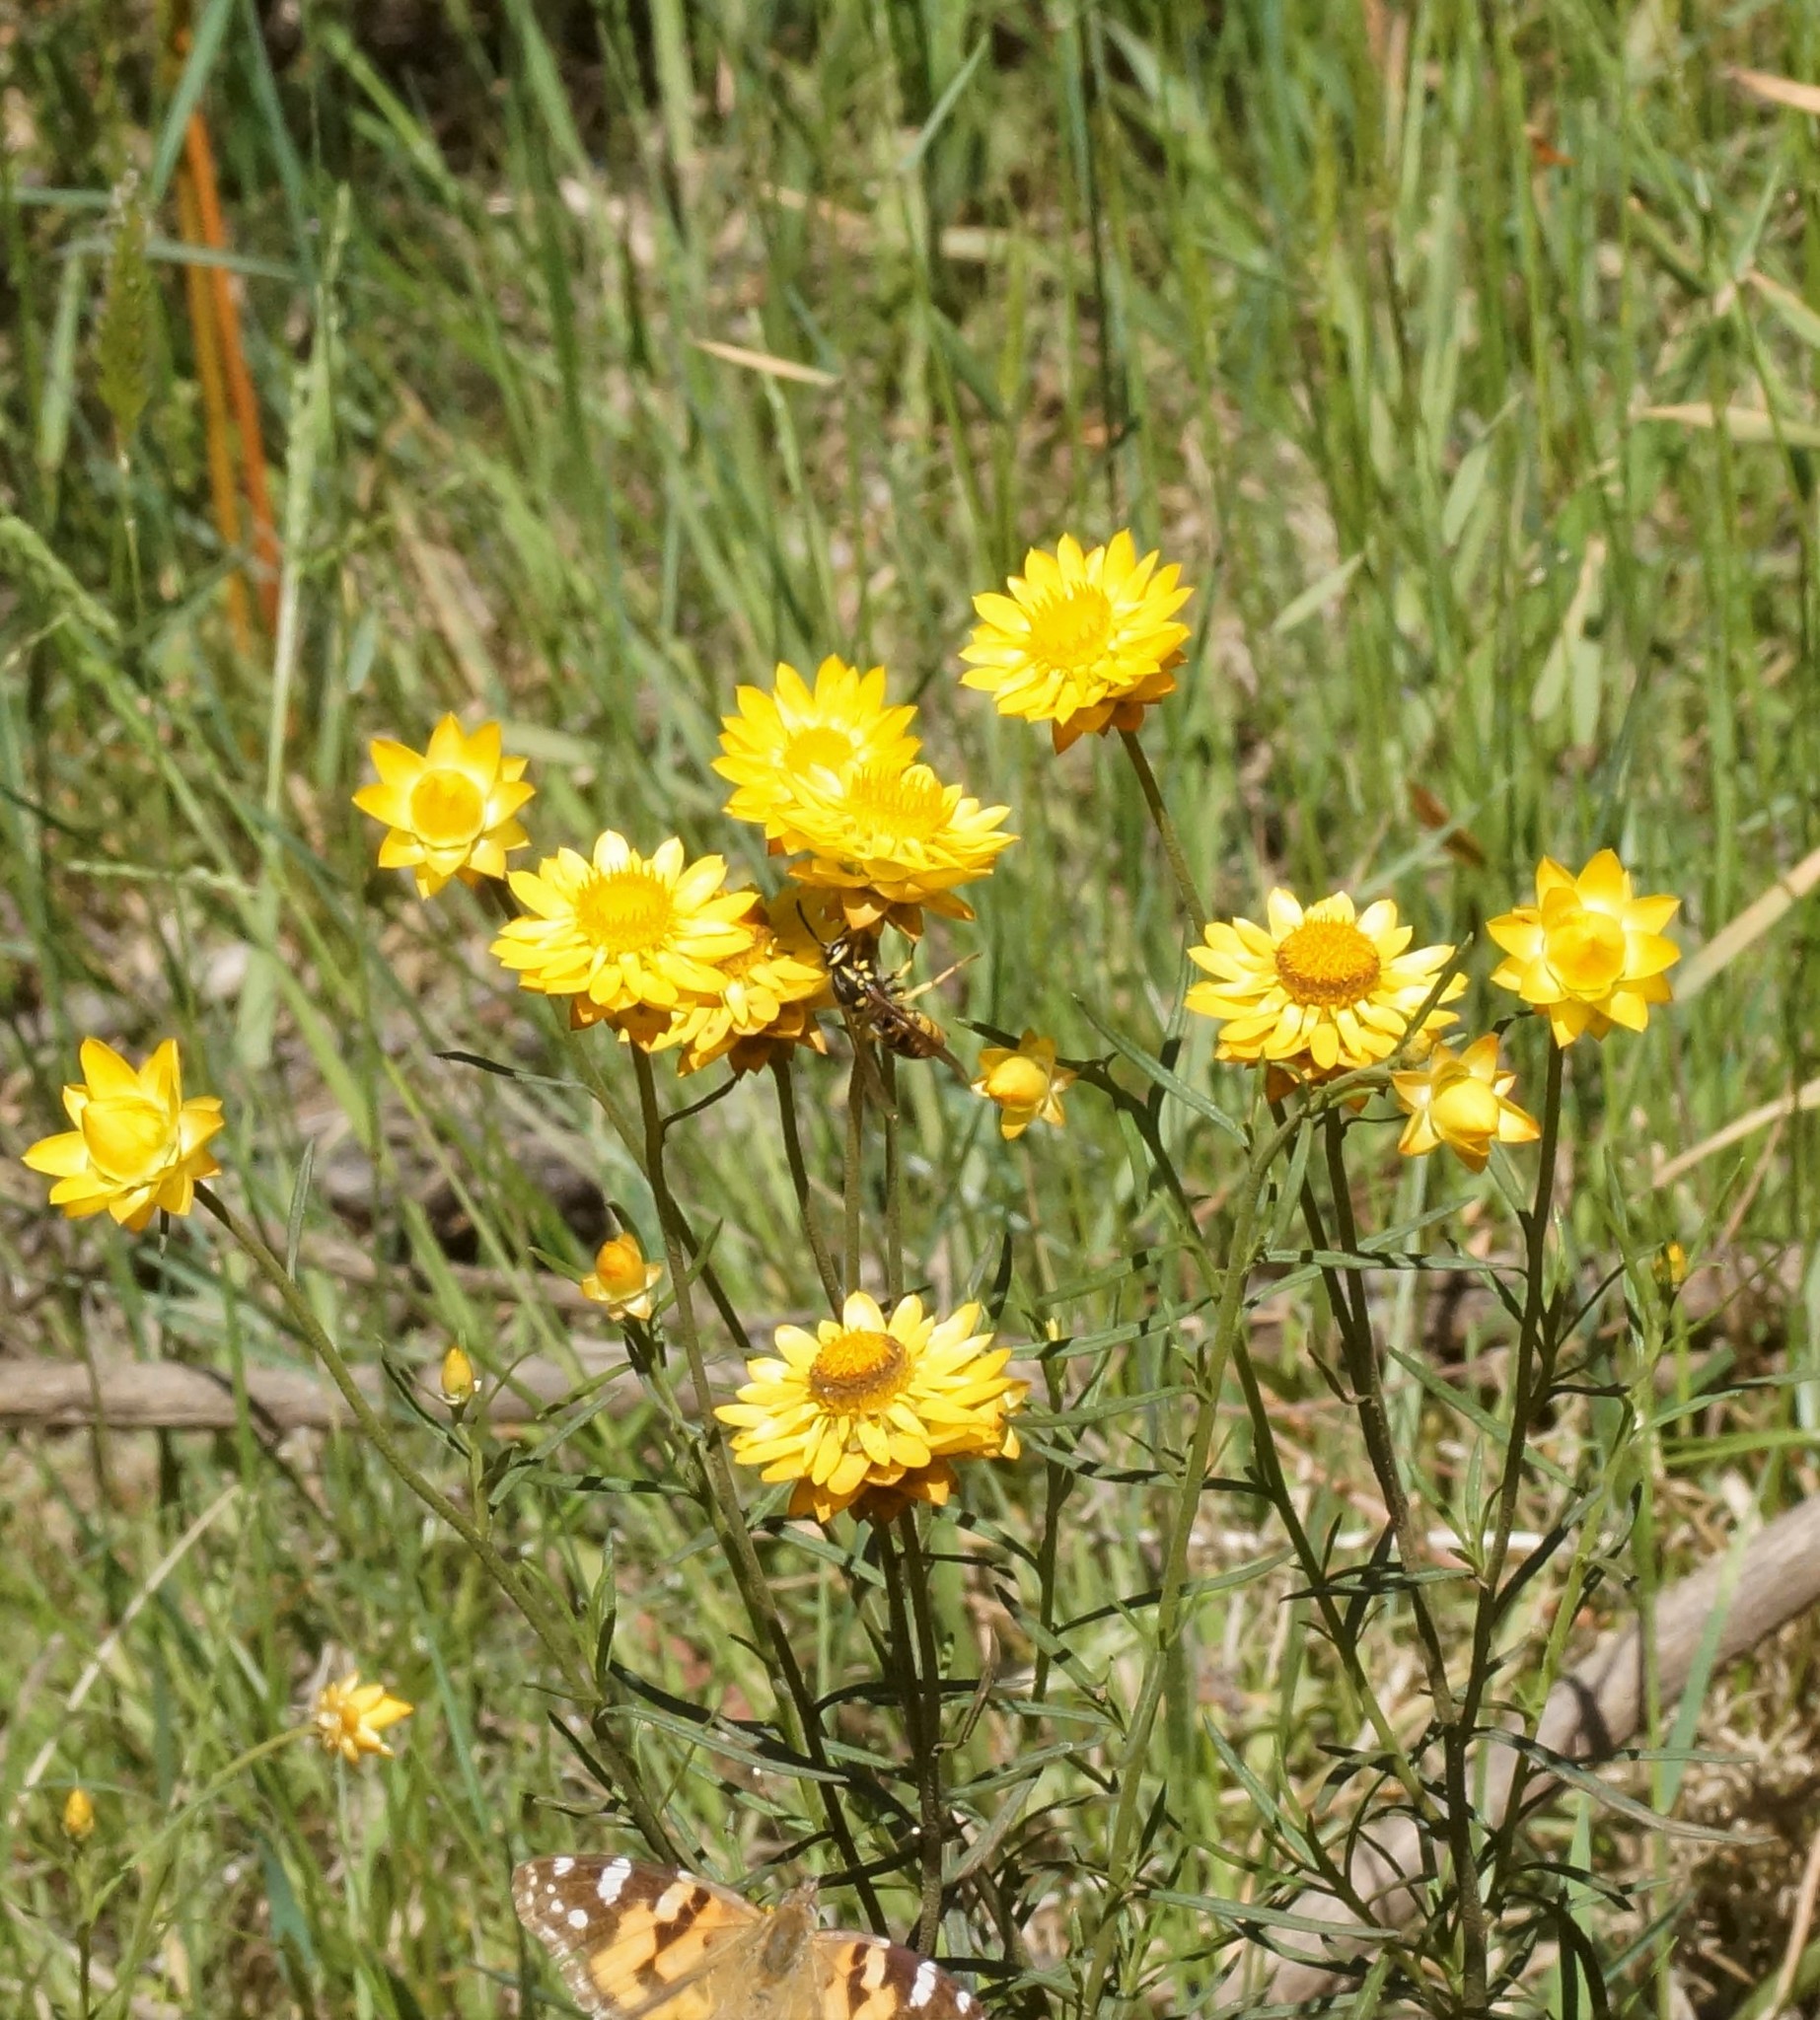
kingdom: Plantae
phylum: Tracheophyta
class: Magnoliopsida
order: Asterales
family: Asteraceae
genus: Xerochrysum
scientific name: Xerochrysum viscosum
